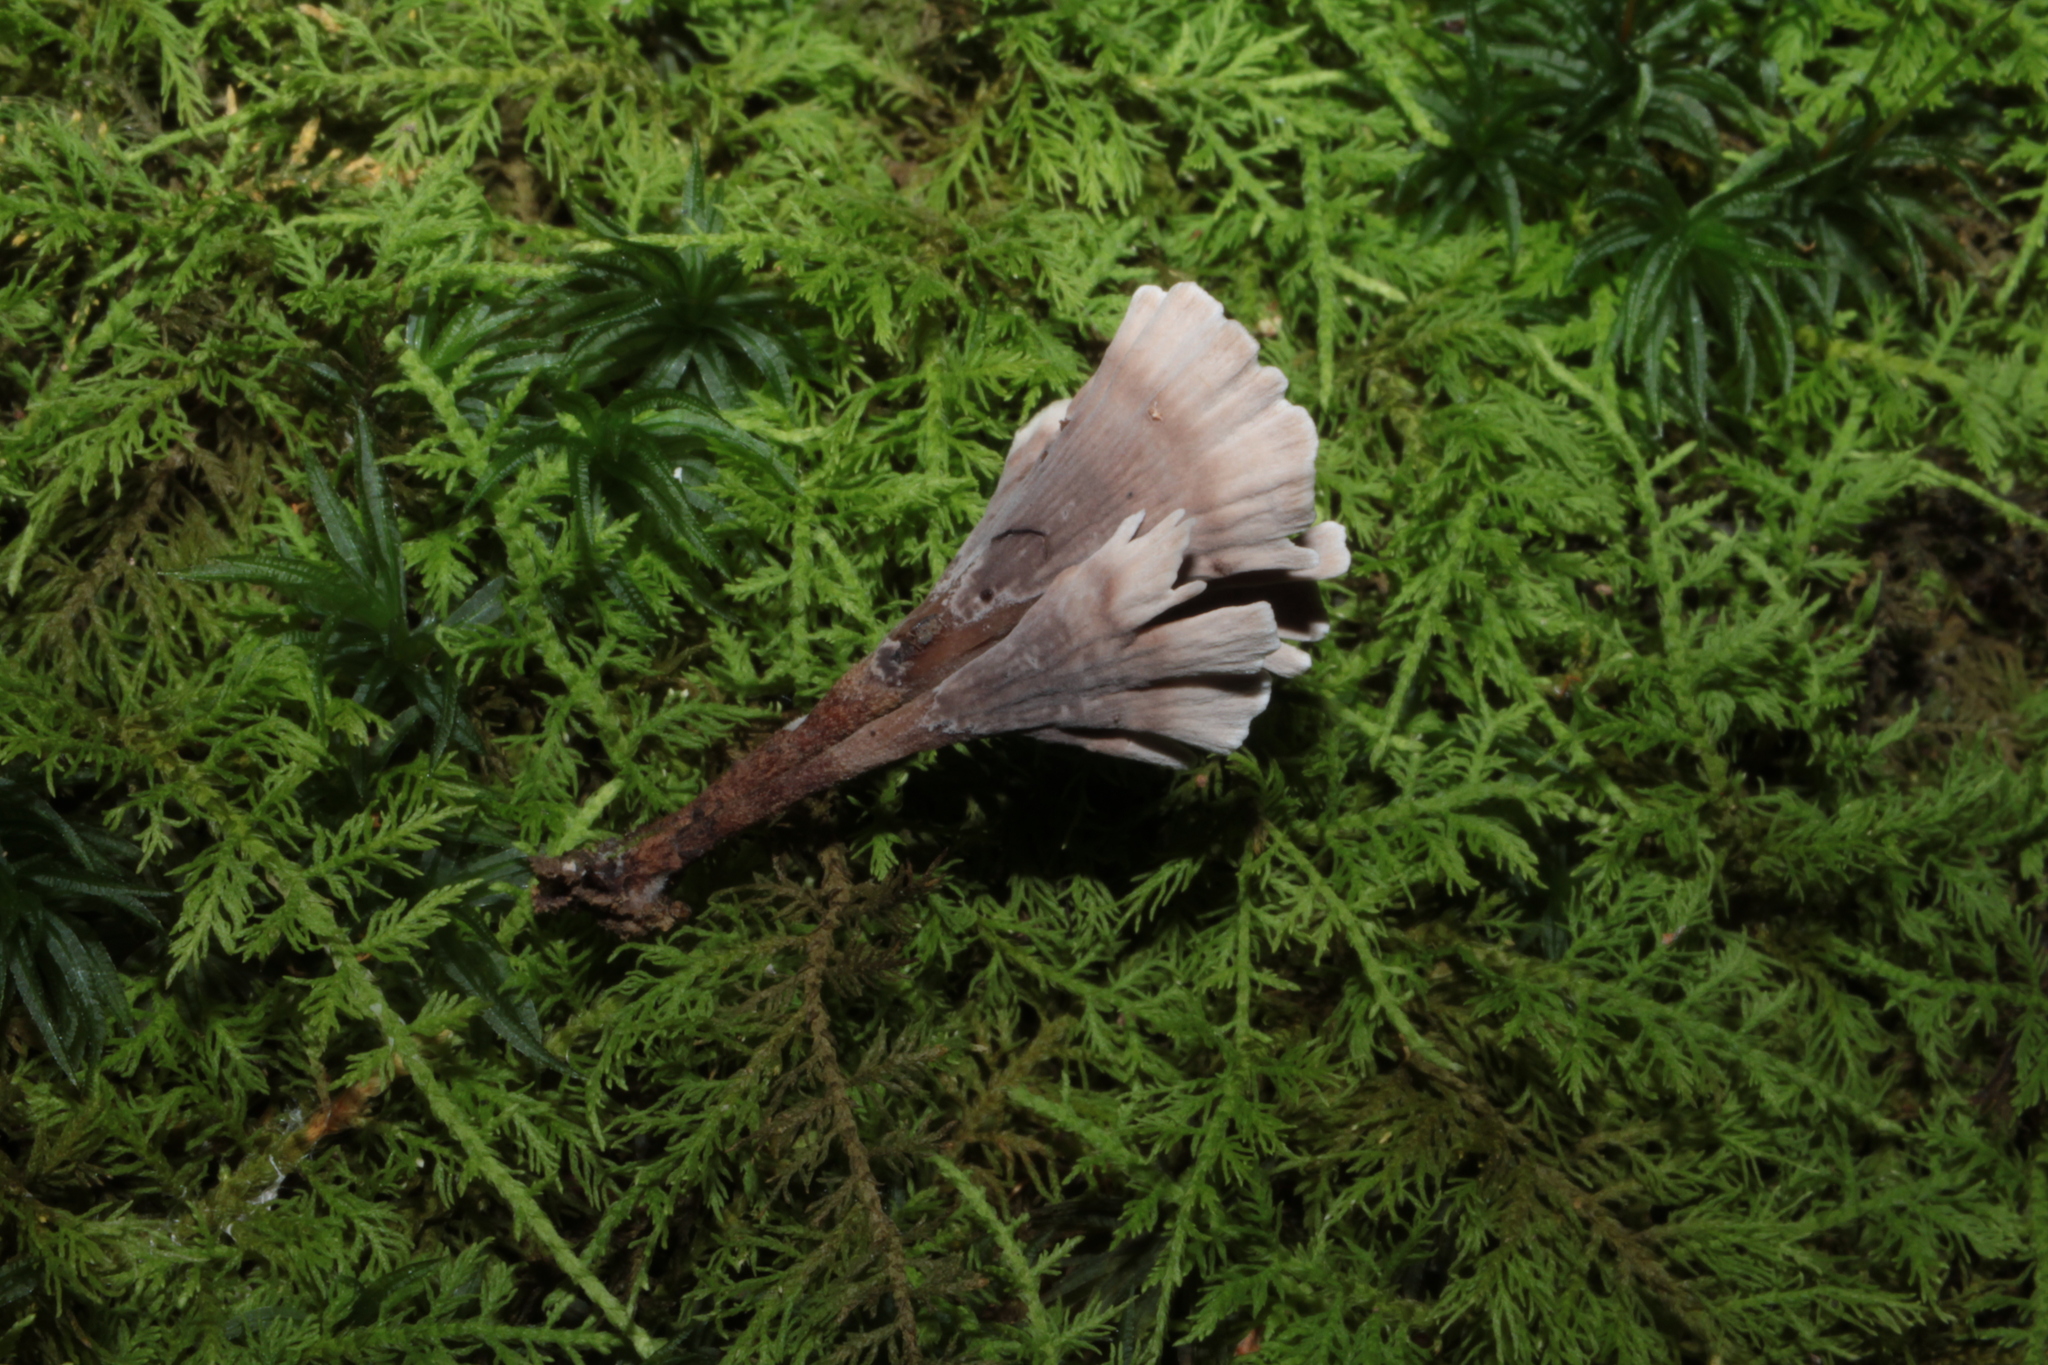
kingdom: Fungi
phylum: Basidiomycota
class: Agaricomycetes
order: Thelephorales
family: Thelephoraceae
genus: Thelephora
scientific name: Thelephora regularis
